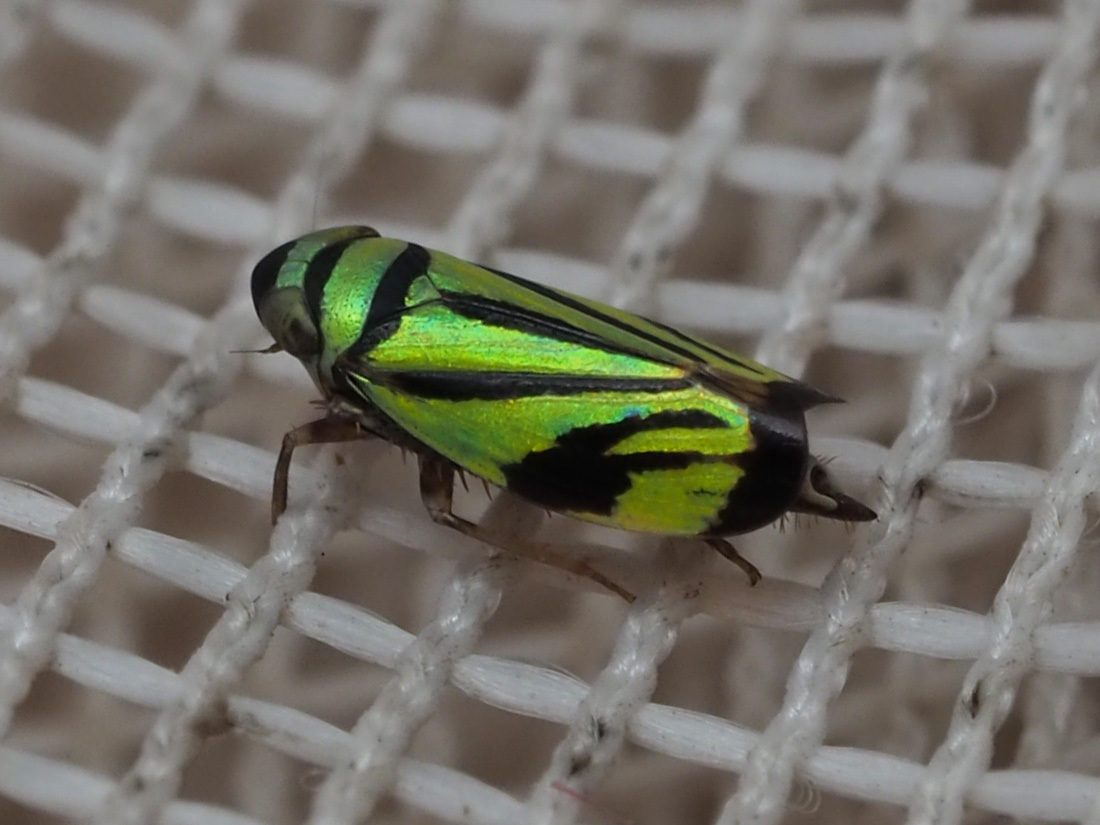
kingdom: Animalia
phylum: Arthropoda
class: Insecta
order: Hemiptera
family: Cicadellidae
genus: Stirellus
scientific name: Stirellus bicolor
